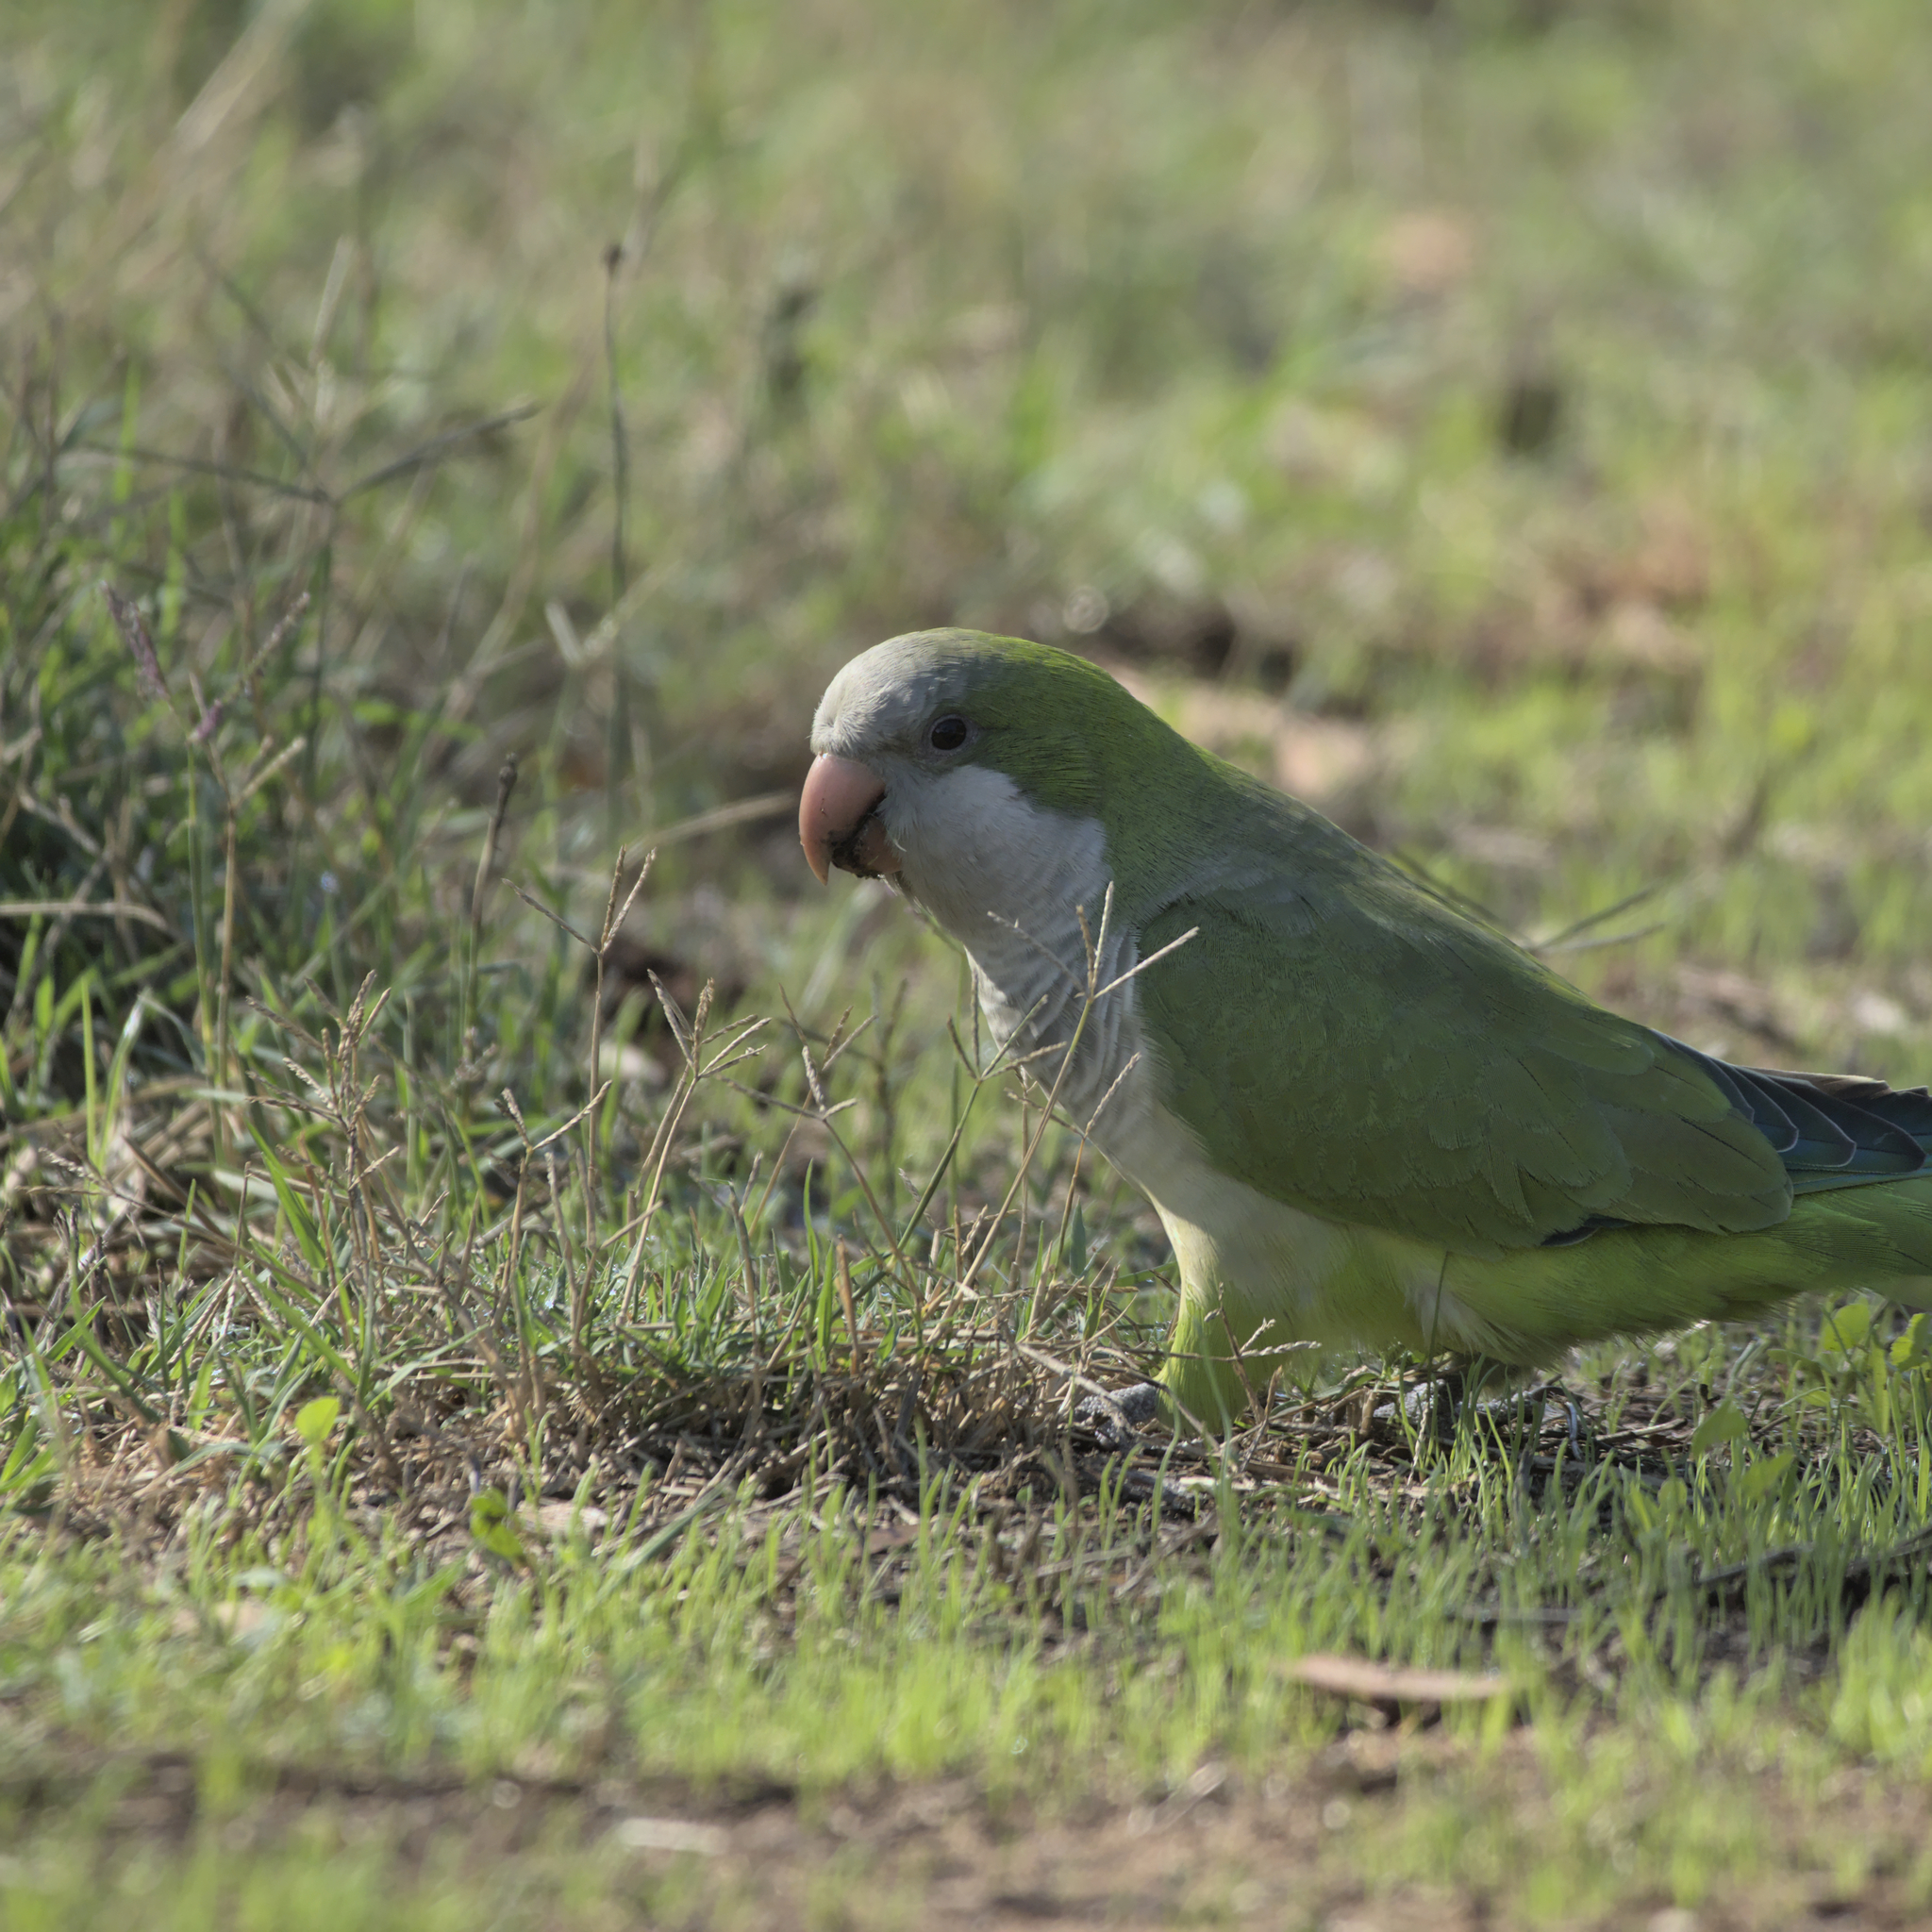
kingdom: Animalia
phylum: Chordata
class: Aves
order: Psittaciformes
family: Psittacidae
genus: Myiopsitta
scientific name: Myiopsitta monachus
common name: Monk parakeet
